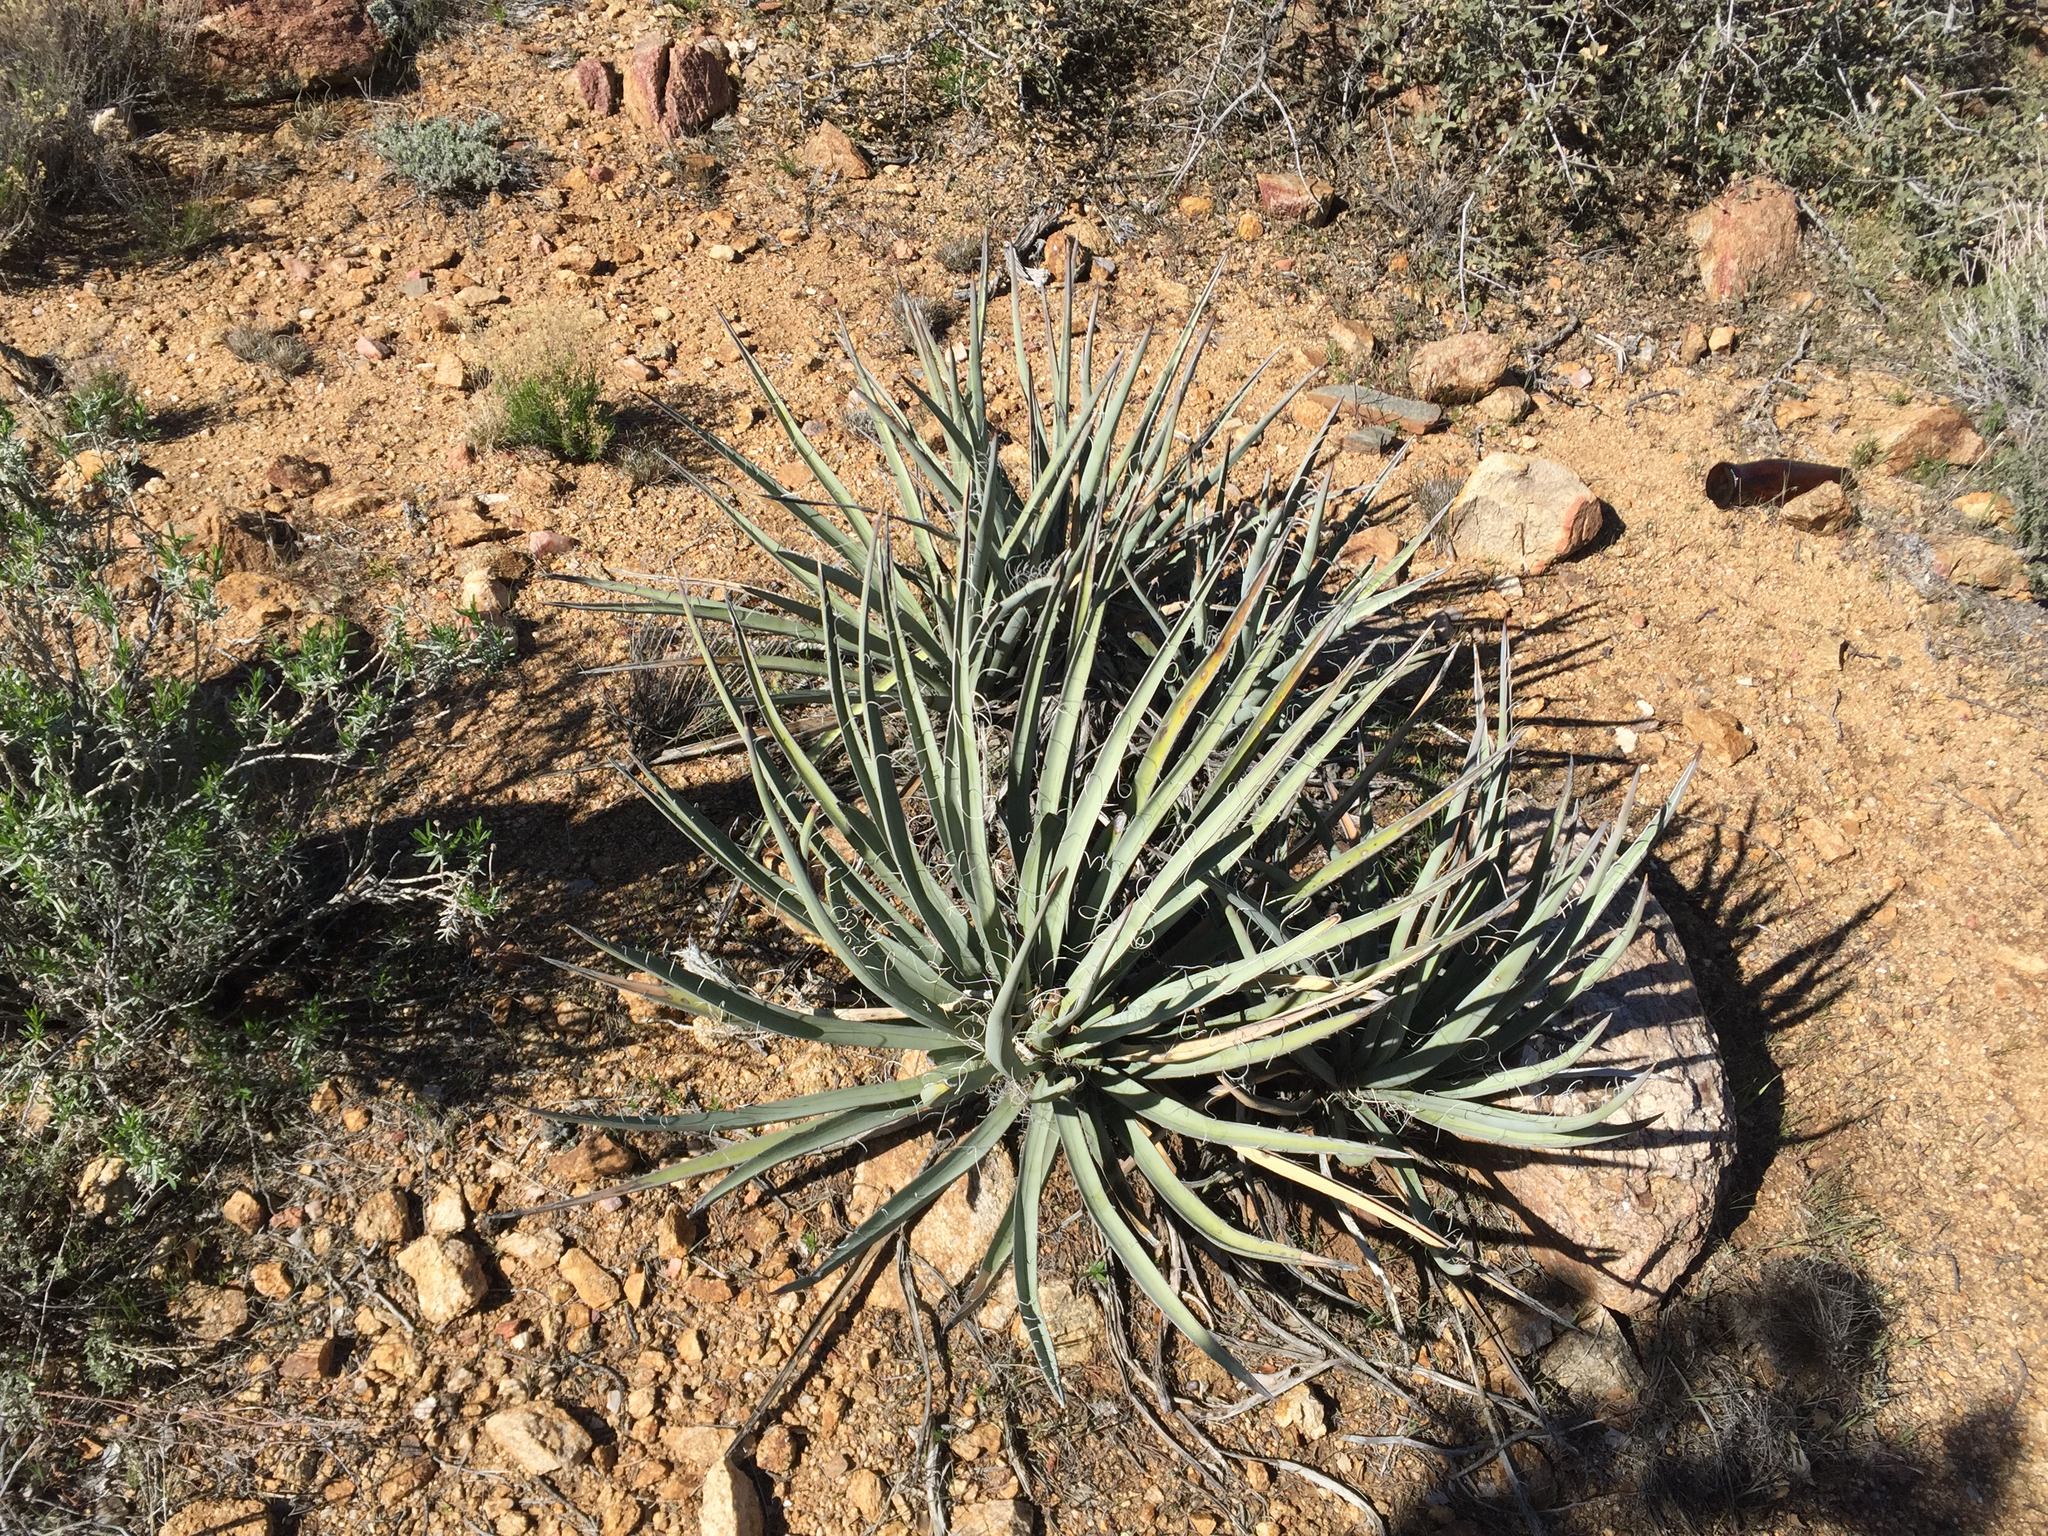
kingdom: Plantae
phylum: Tracheophyta
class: Liliopsida
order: Asparagales
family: Asparagaceae
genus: Yucca
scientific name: Yucca baccata
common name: Banana yucca
